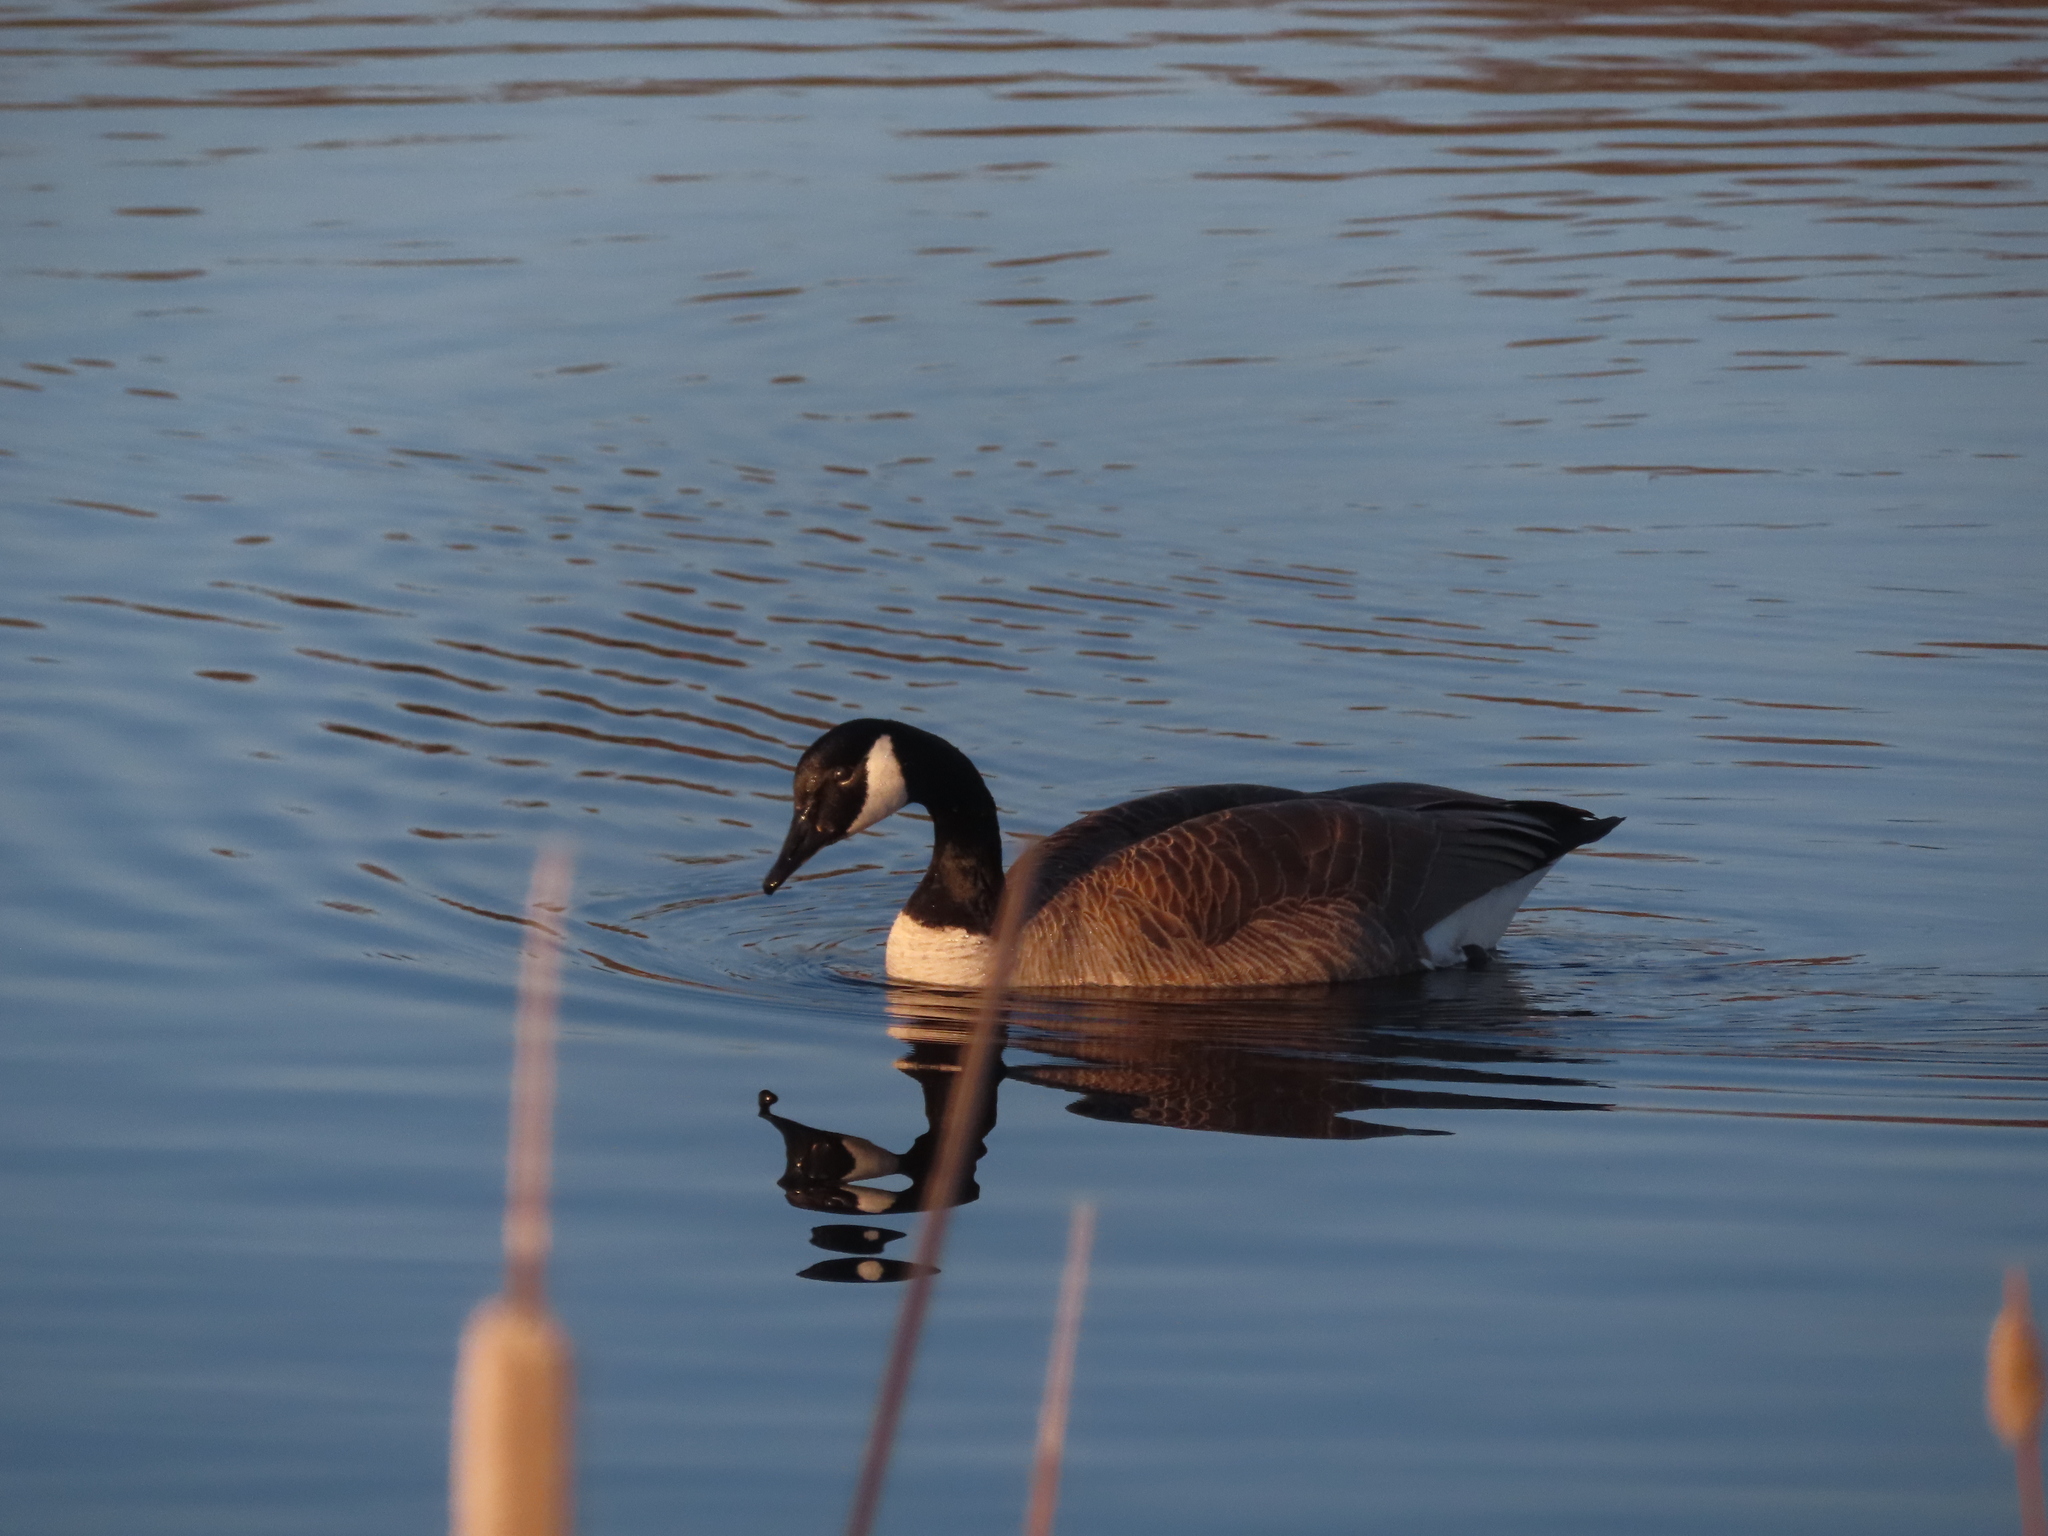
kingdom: Animalia
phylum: Chordata
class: Aves
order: Anseriformes
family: Anatidae
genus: Branta
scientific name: Branta canadensis
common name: Canada goose
